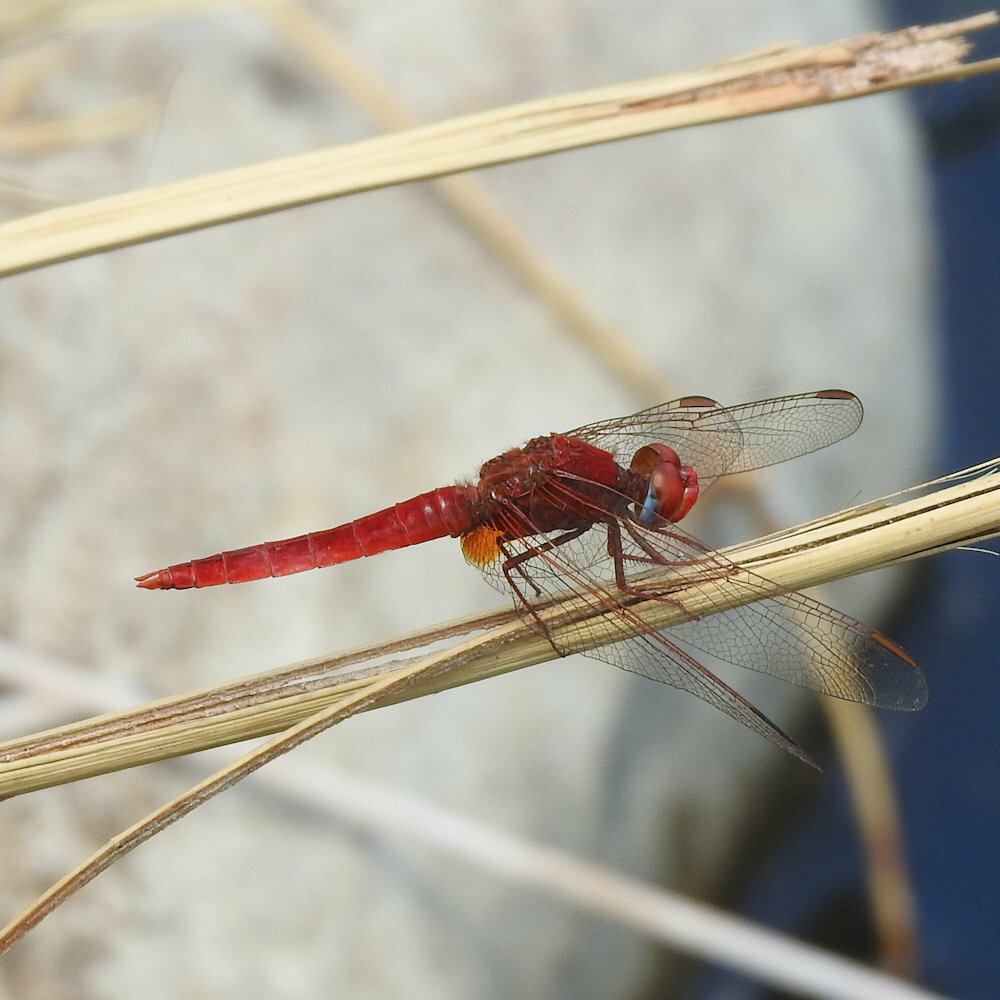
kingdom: Animalia
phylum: Arthropoda
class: Insecta
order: Odonata
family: Libellulidae
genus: Crocothemis
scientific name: Crocothemis erythraea
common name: Scarlet dragonfly
